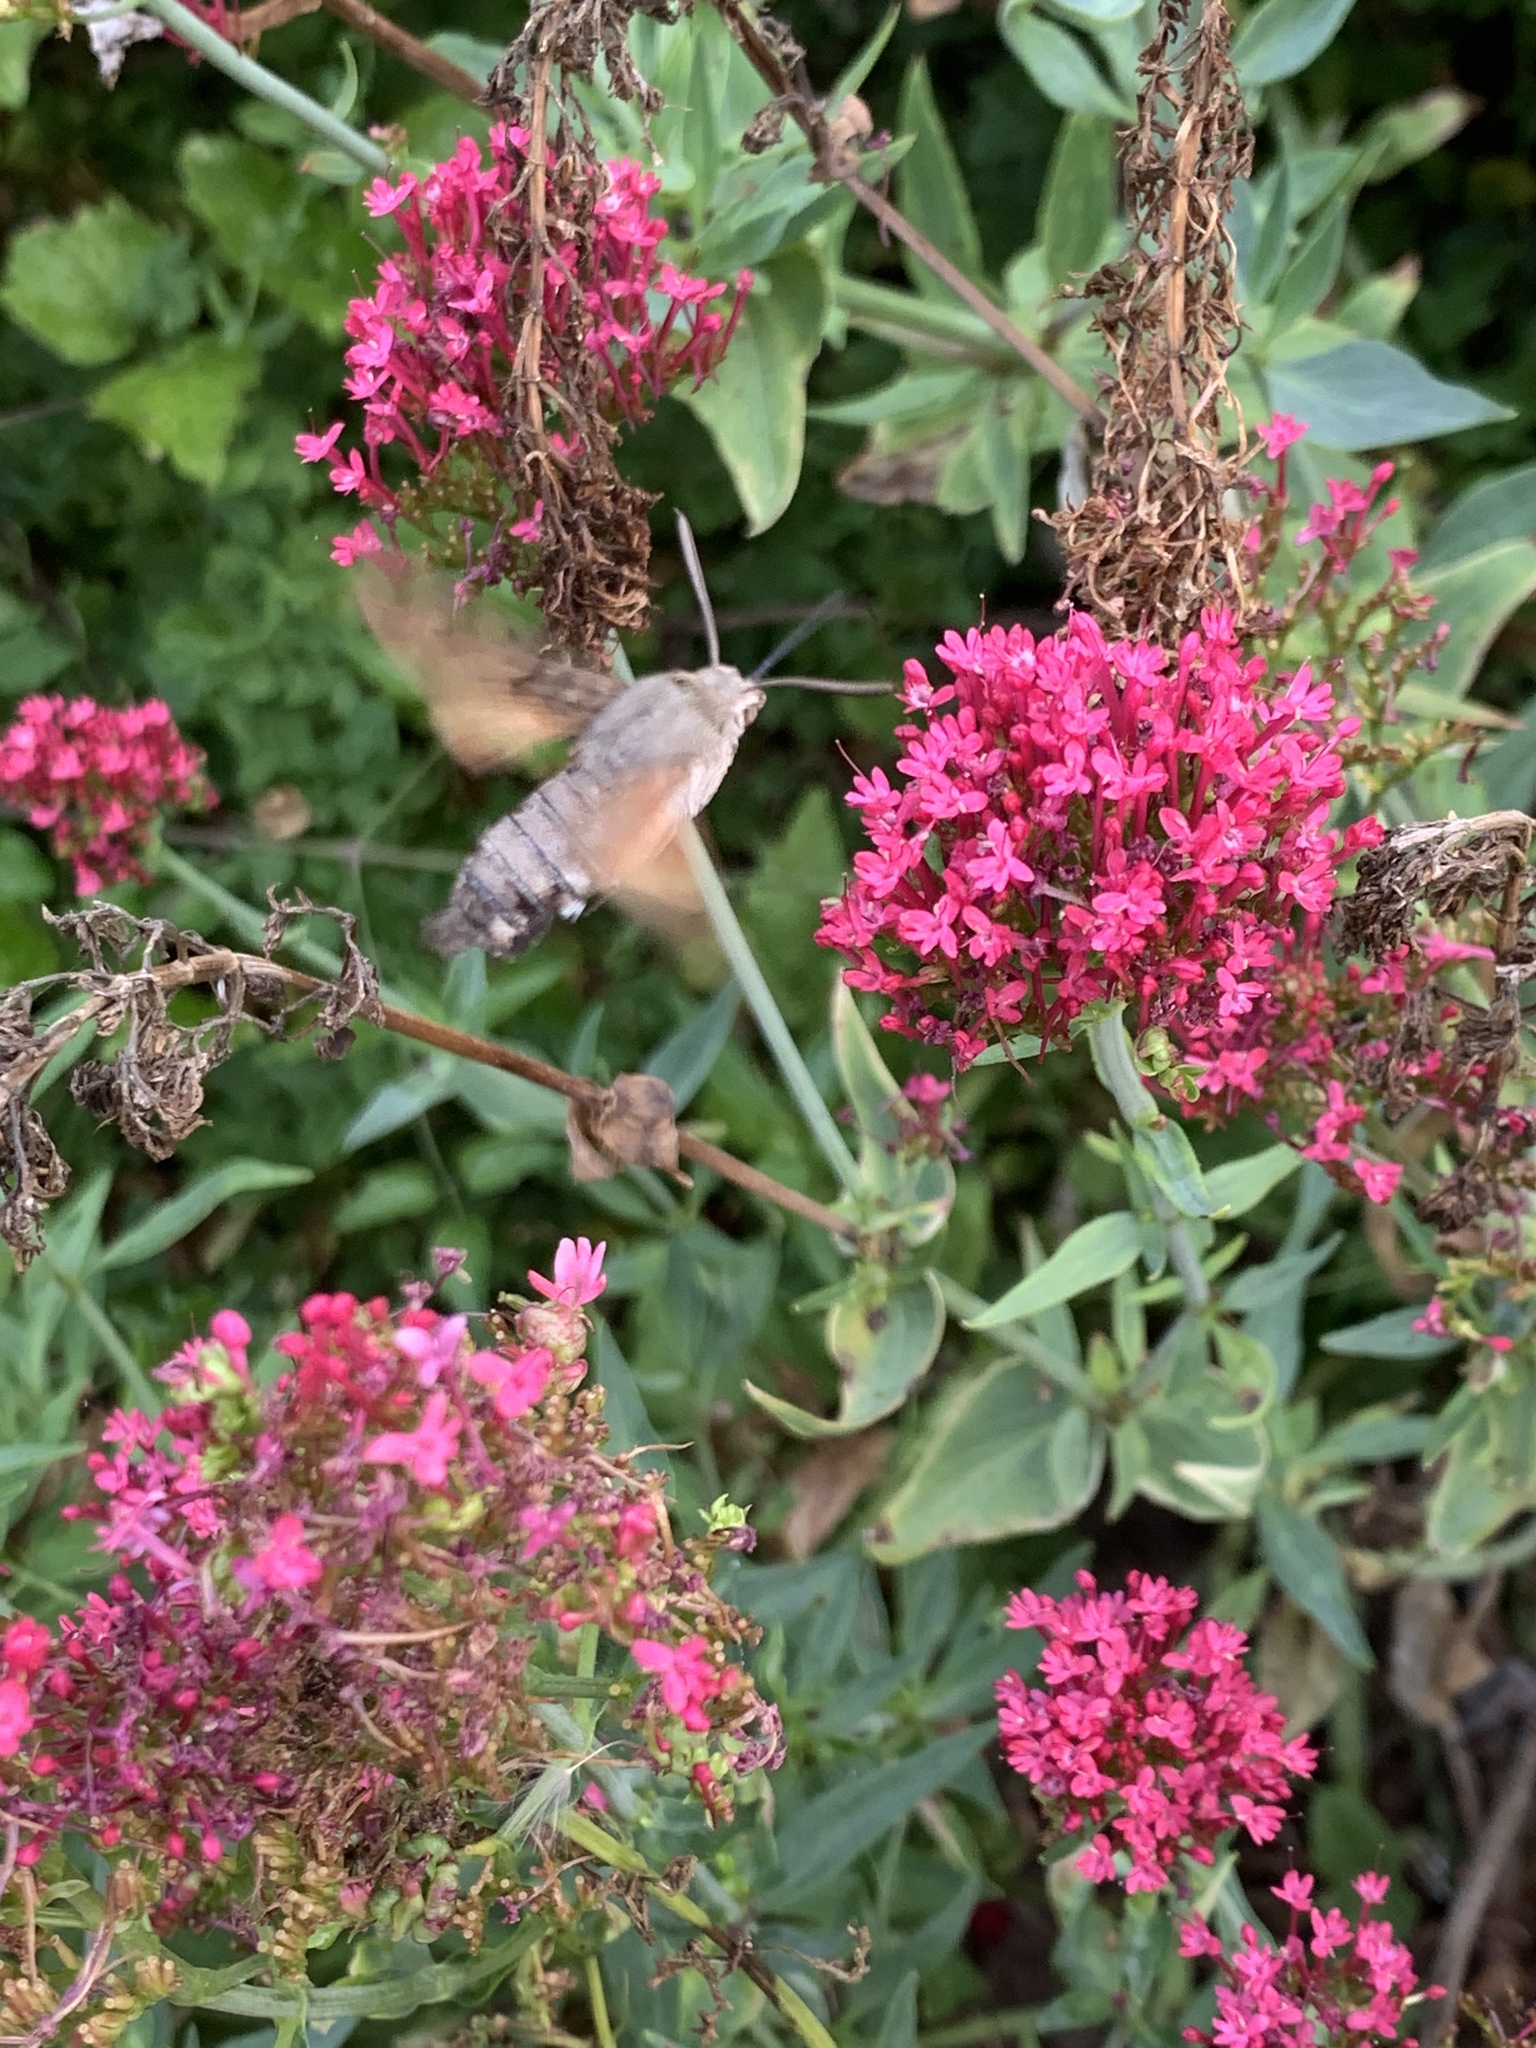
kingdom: Animalia
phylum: Arthropoda
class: Insecta
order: Lepidoptera
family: Sphingidae
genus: Macroglossum
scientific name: Macroglossum stellatarum
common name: Humming-bird hawk-moth
